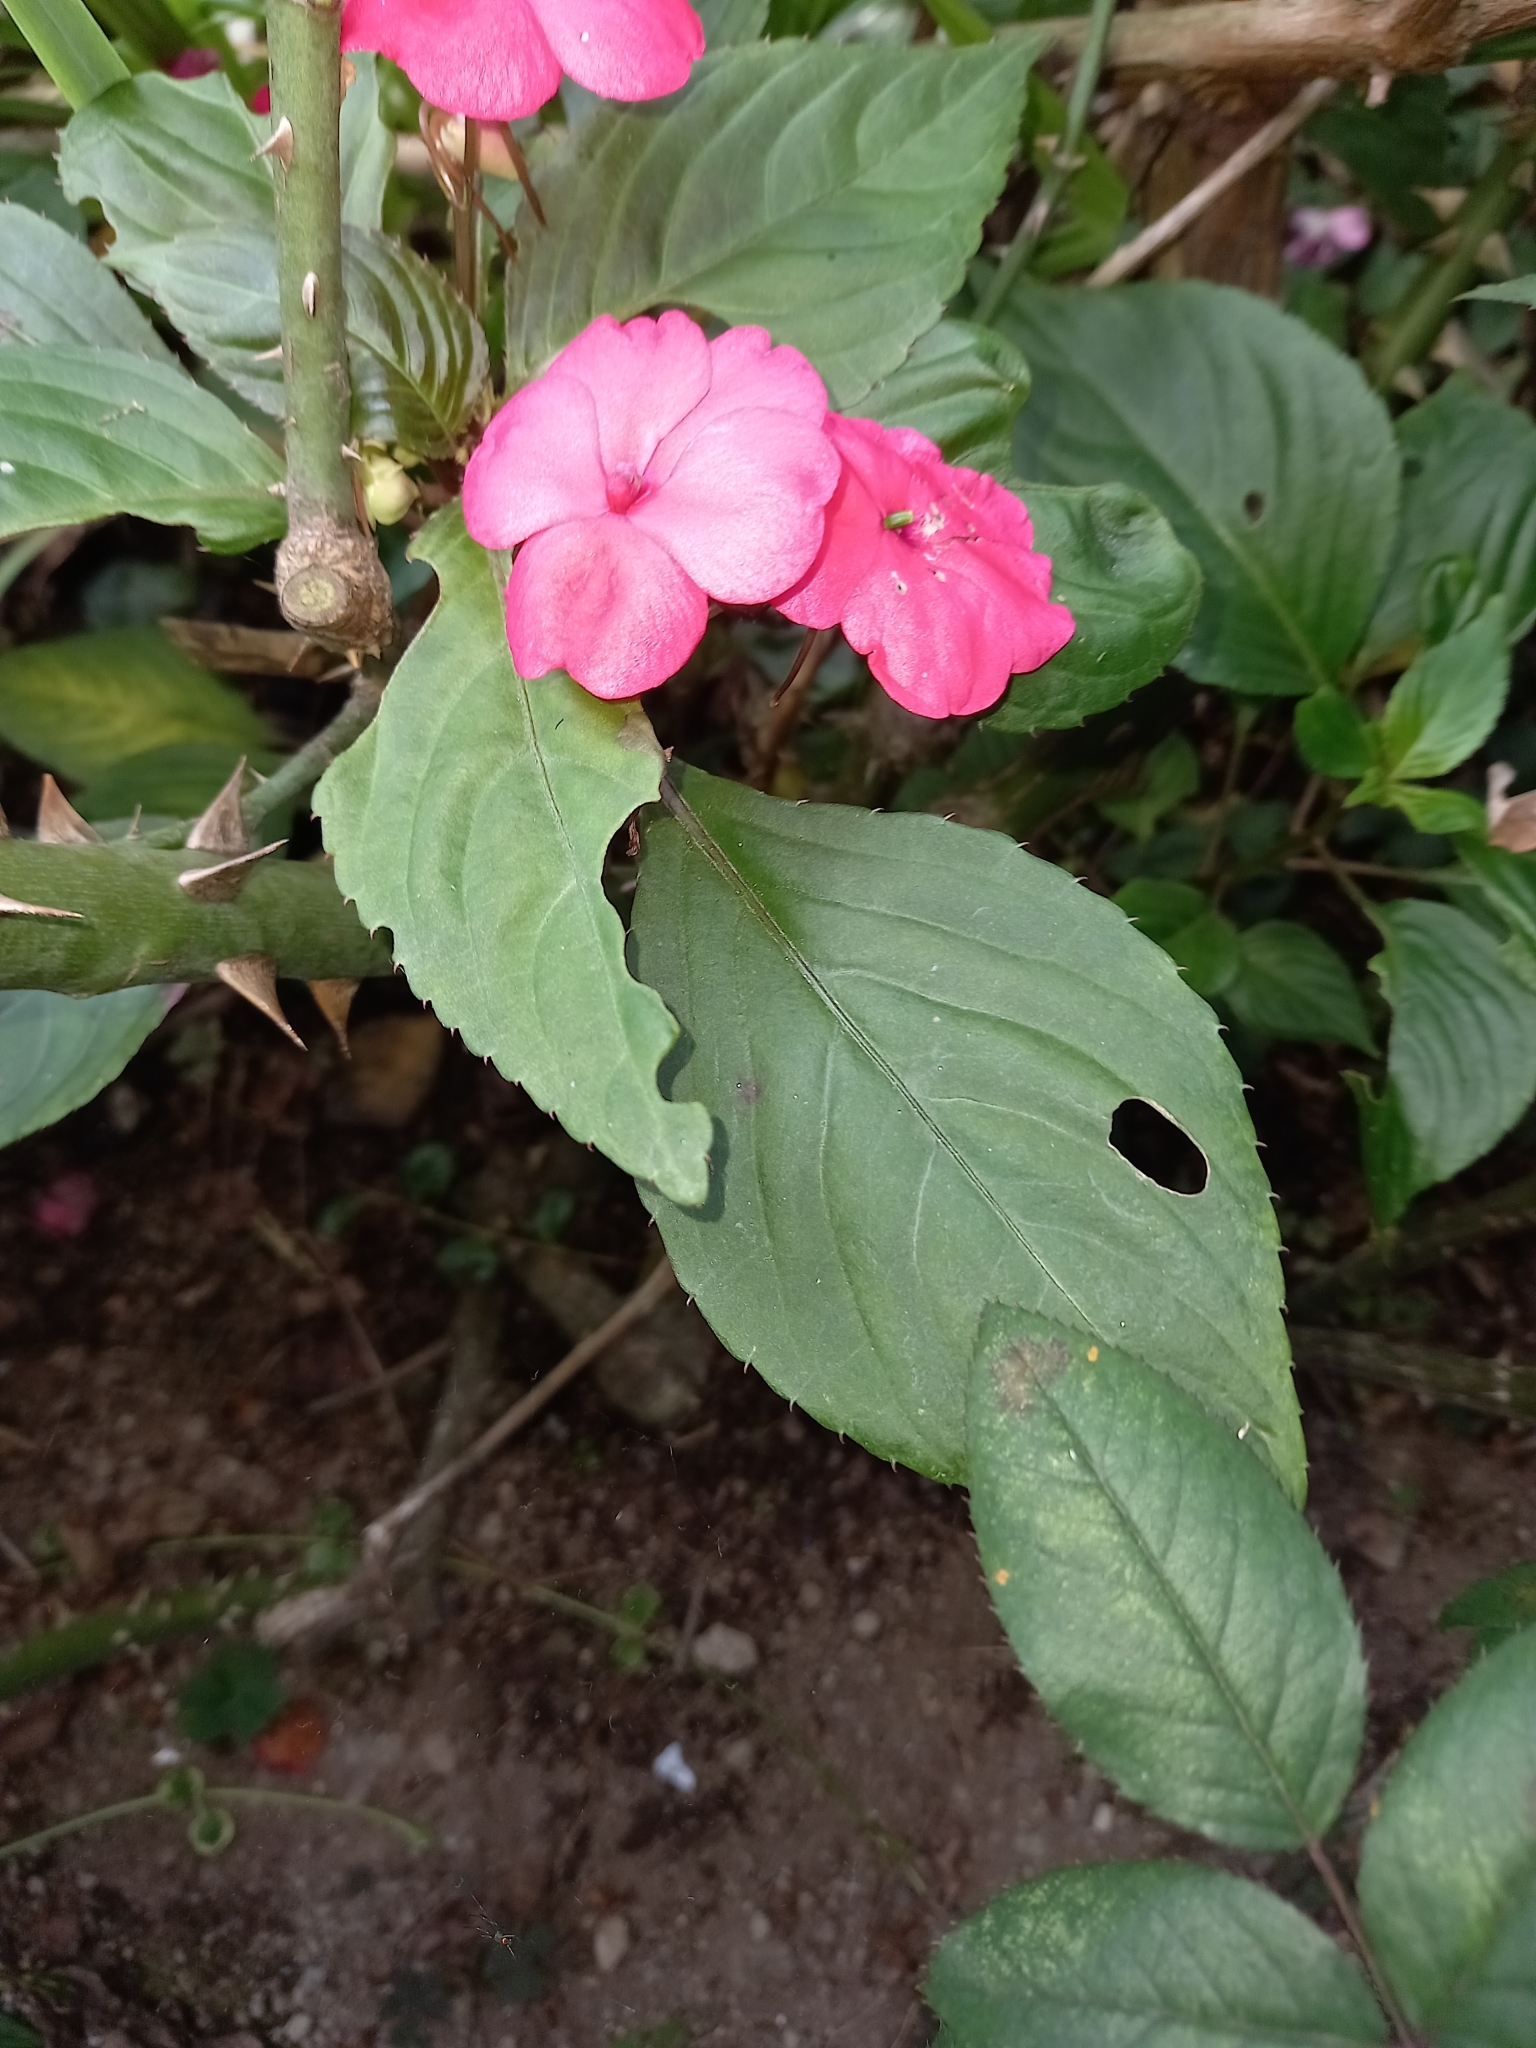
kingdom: Plantae
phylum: Tracheophyta
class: Magnoliopsida
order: Ericales
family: Balsaminaceae
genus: Impatiens
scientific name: Impatiens walleriana
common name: Buzzy lizzy
